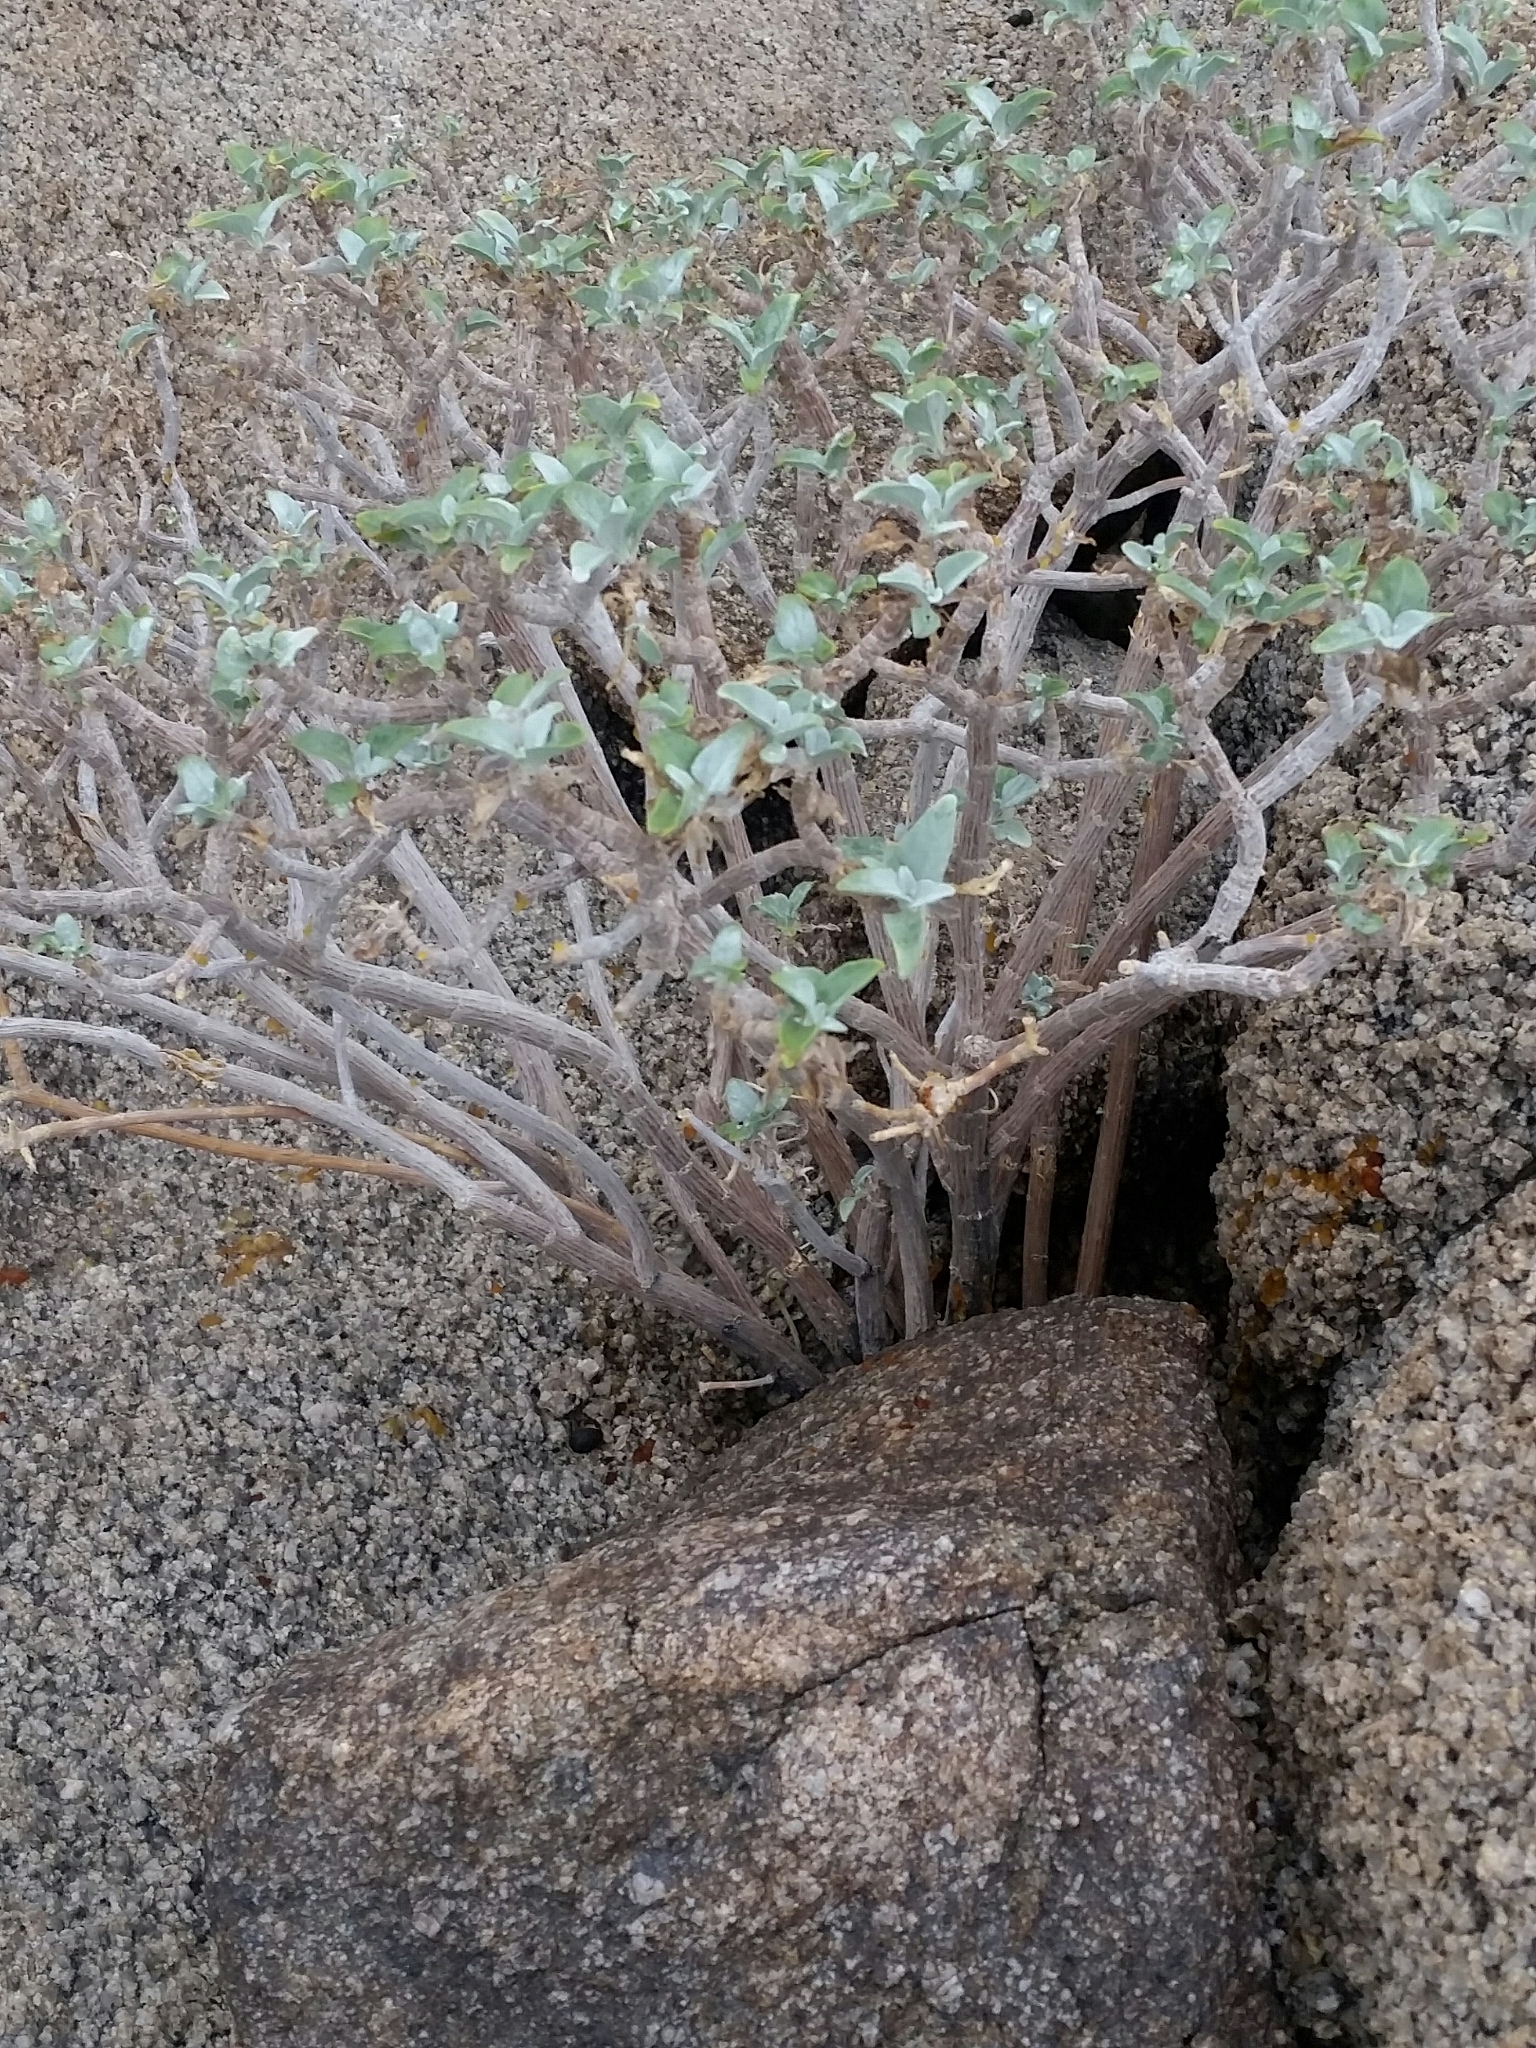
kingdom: Plantae
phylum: Tracheophyta
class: Magnoliopsida
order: Asterales
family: Asteraceae
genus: Encelia
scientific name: Encelia farinosa
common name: Brittlebush
